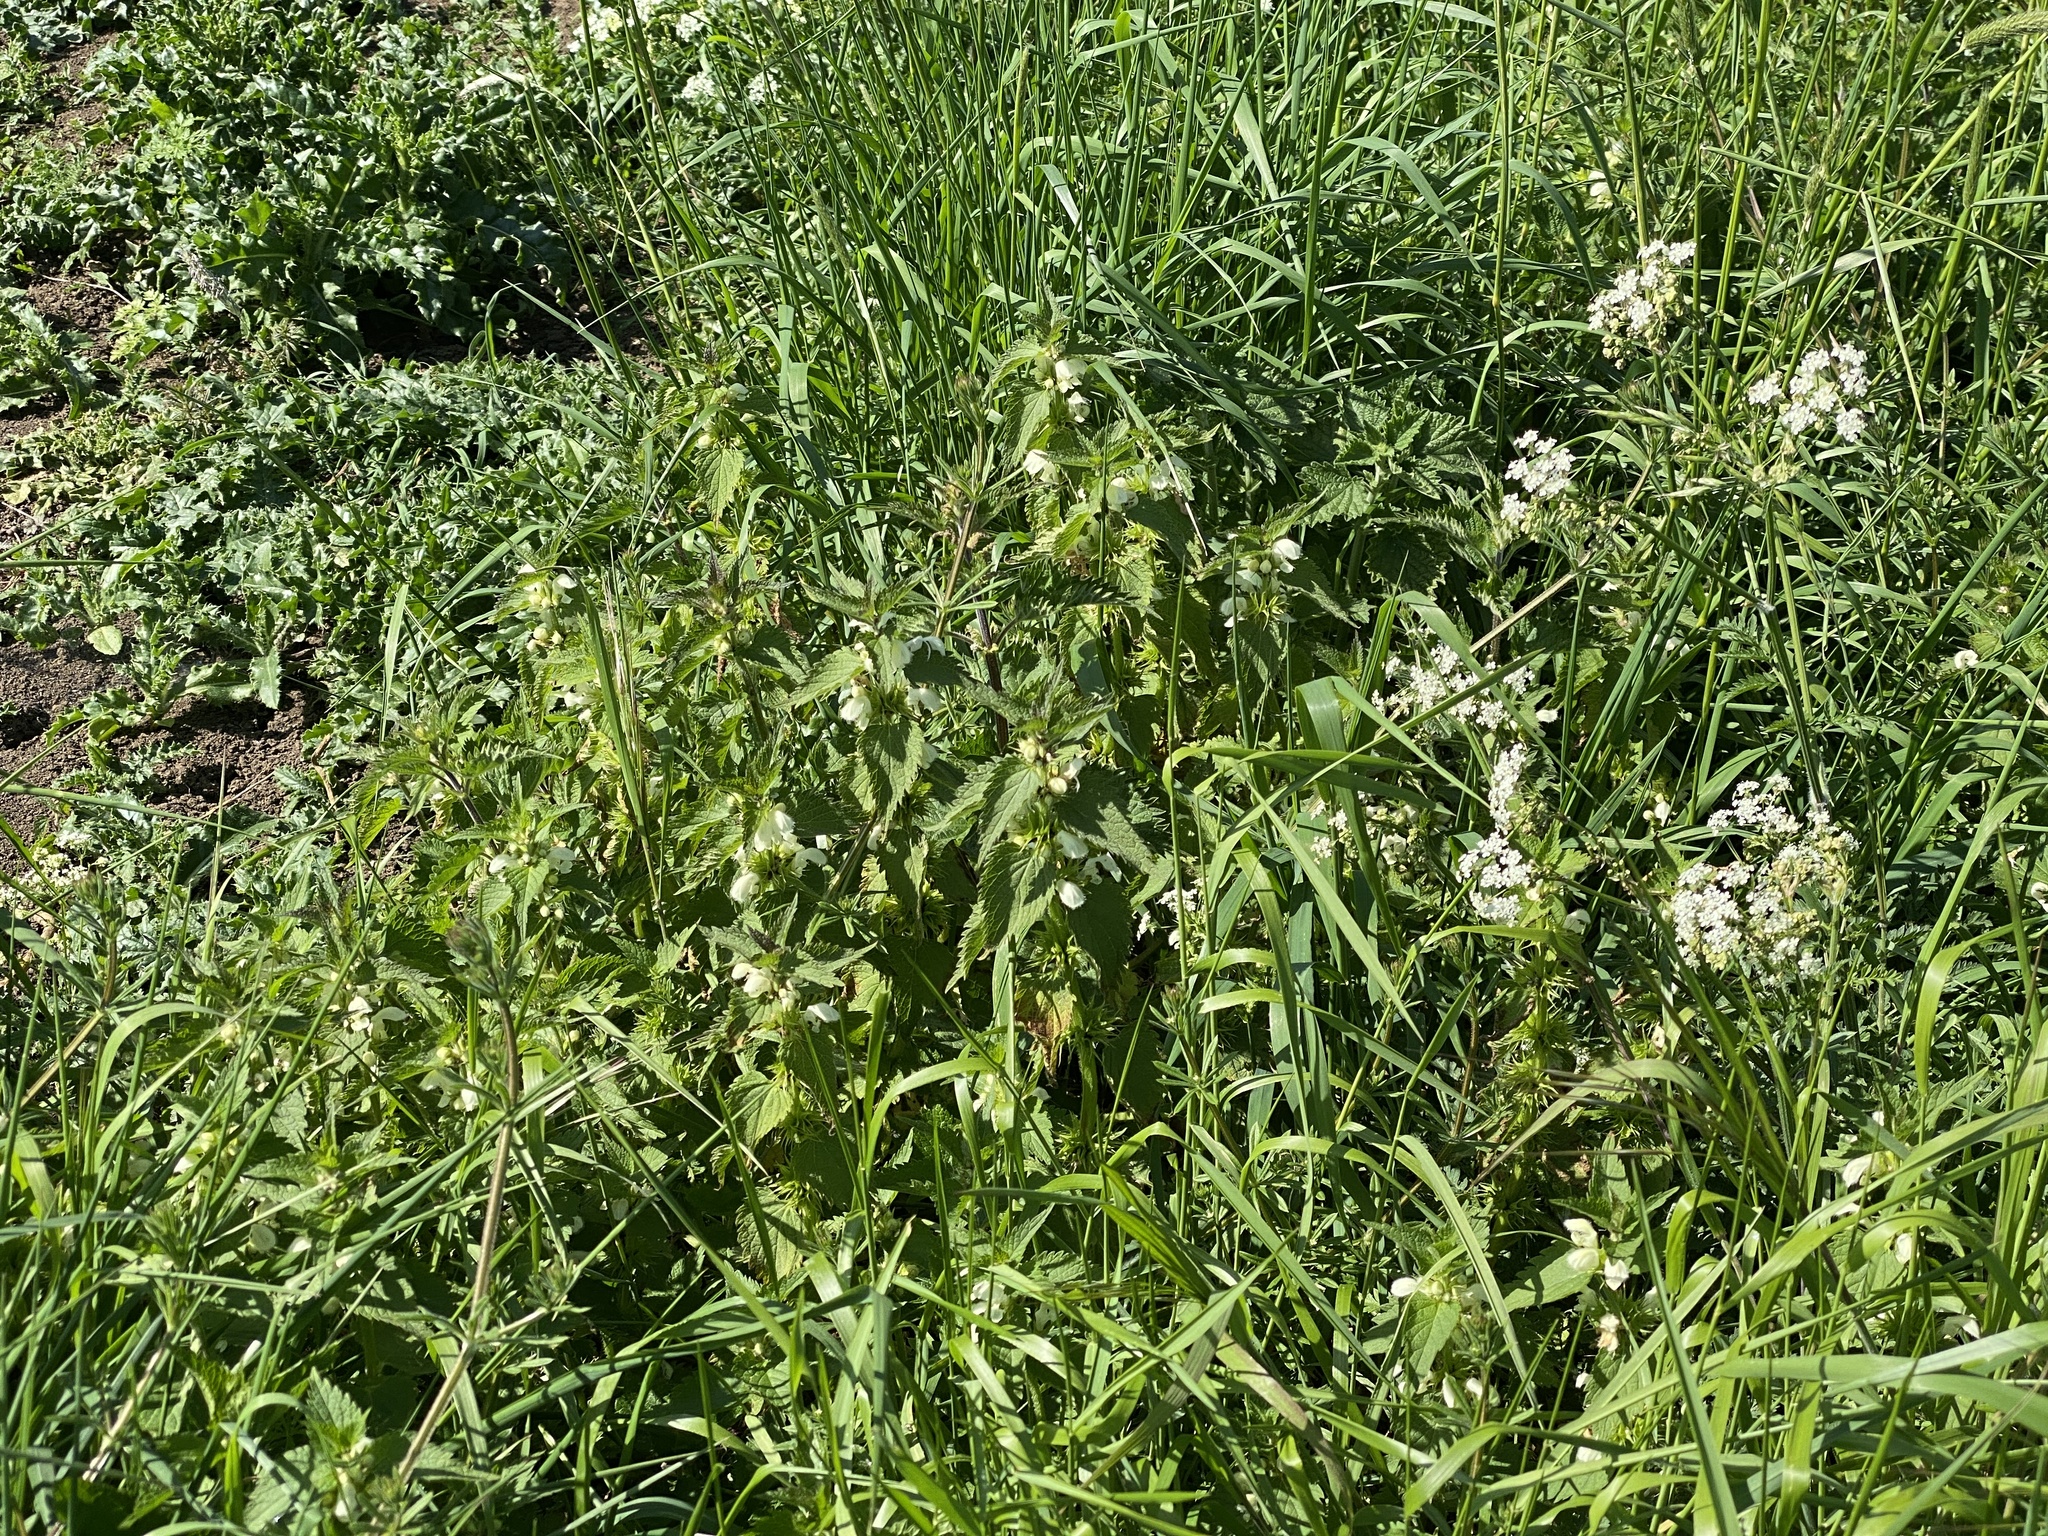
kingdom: Plantae
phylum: Tracheophyta
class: Magnoliopsida
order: Lamiales
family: Lamiaceae
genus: Lamium
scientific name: Lamium album
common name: White dead-nettle
